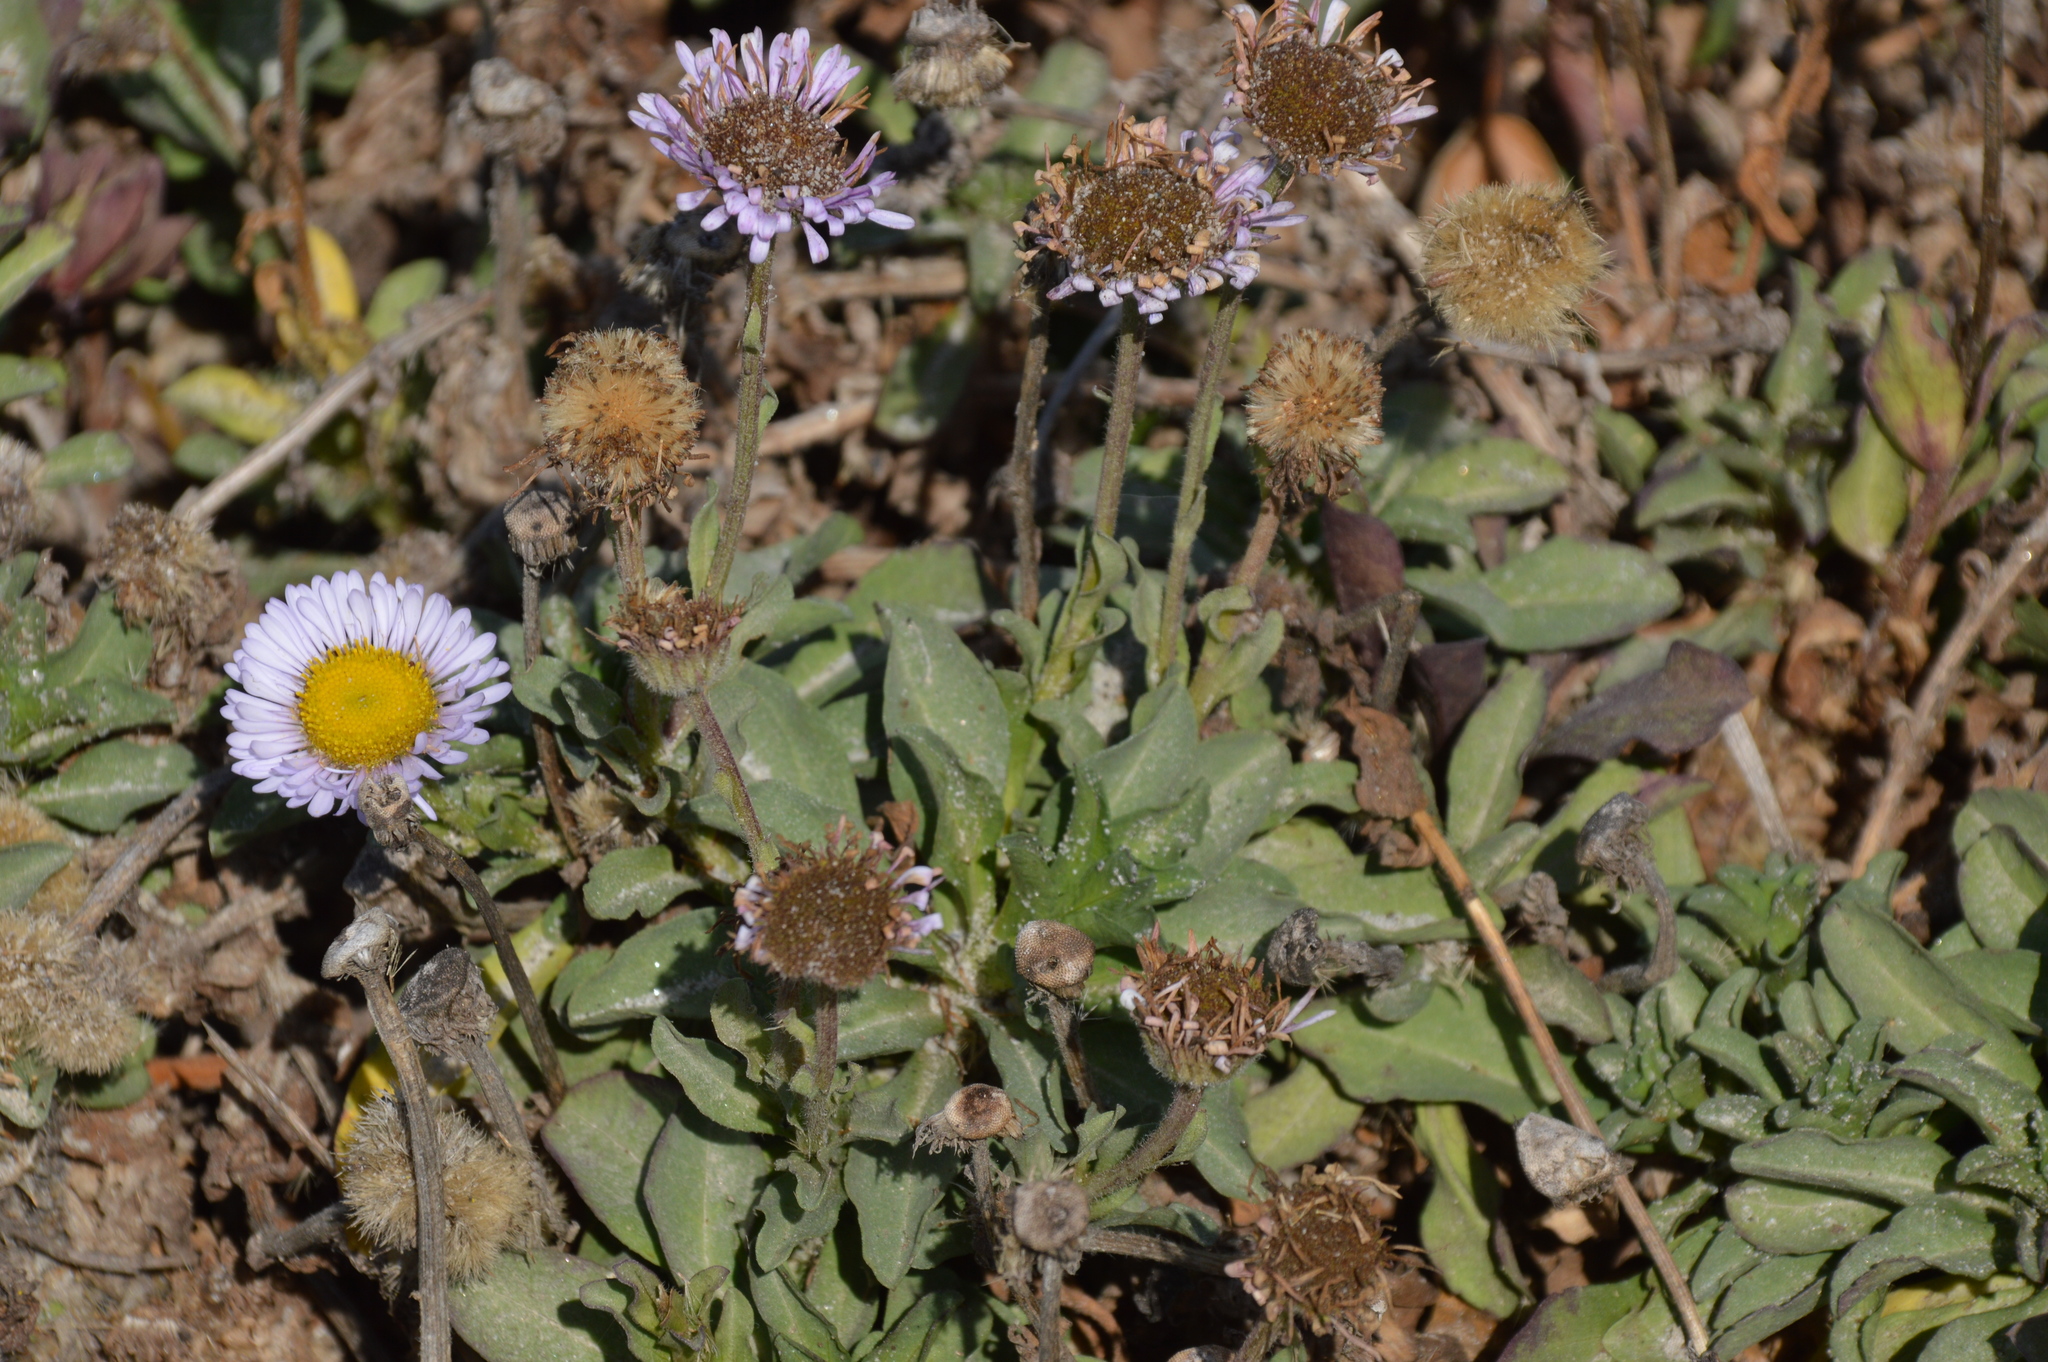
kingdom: Plantae
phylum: Tracheophyta
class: Magnoliopsida
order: Asterales
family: Asteraceae
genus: Erigeron
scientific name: Erigeron glaucus
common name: Seaside daisy
